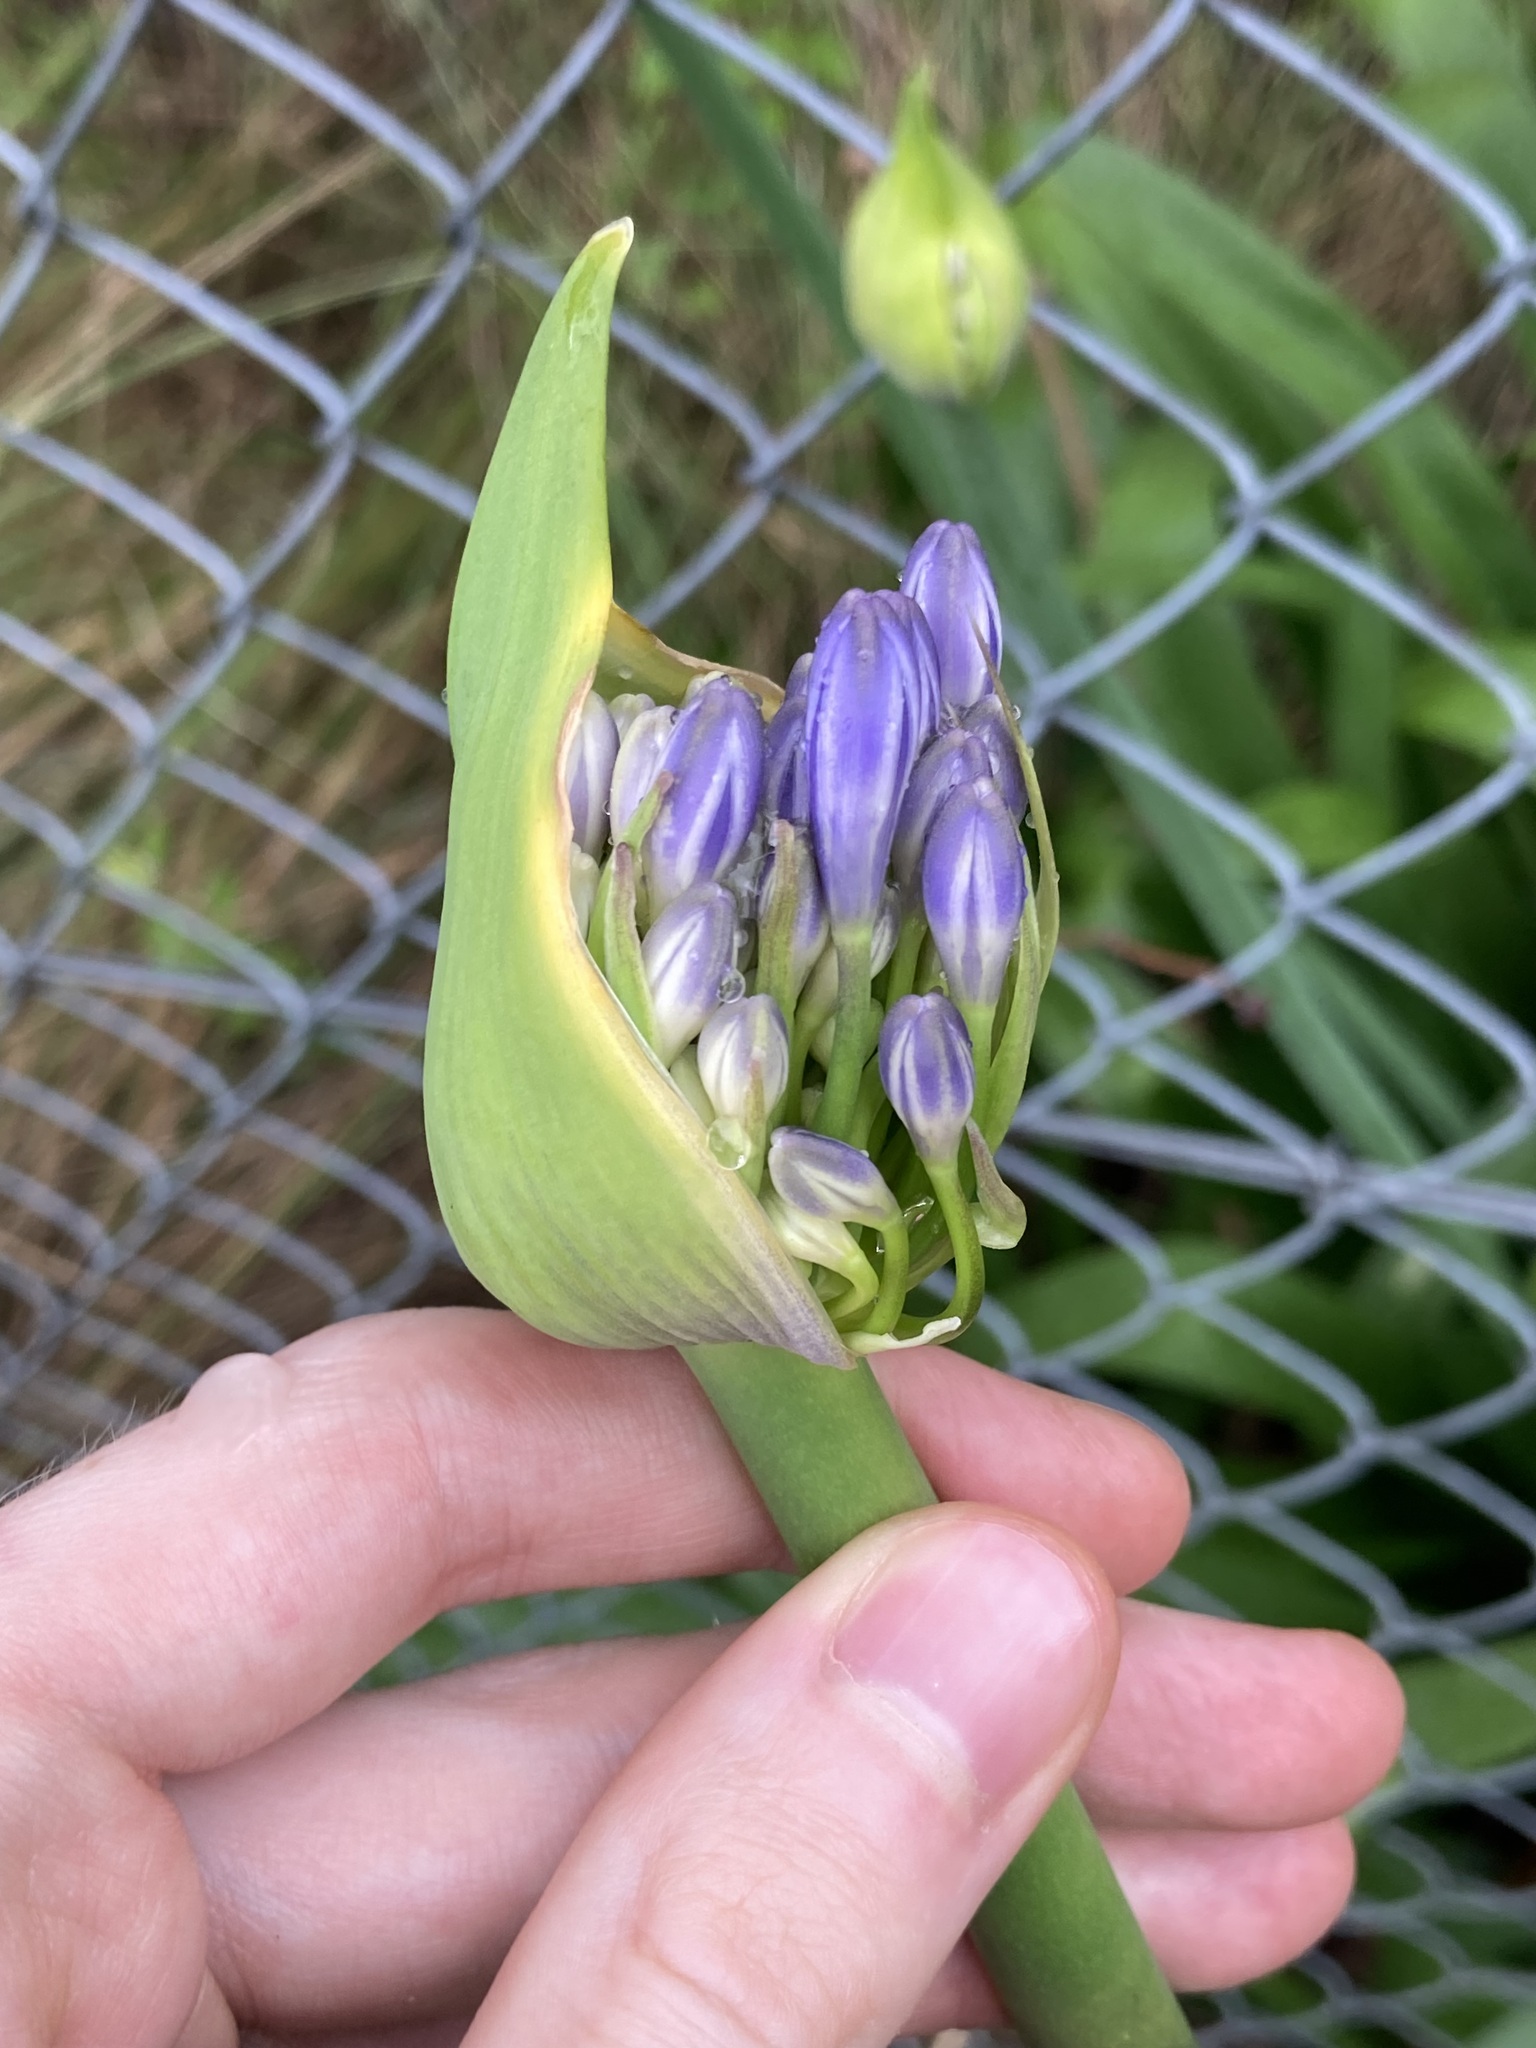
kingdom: Plantae
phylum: Tracheophyta
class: Liliopsida
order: Asparagales
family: Amaryllidaceae
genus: Agapanthus
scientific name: Agapanthus praecox
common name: African-lily
